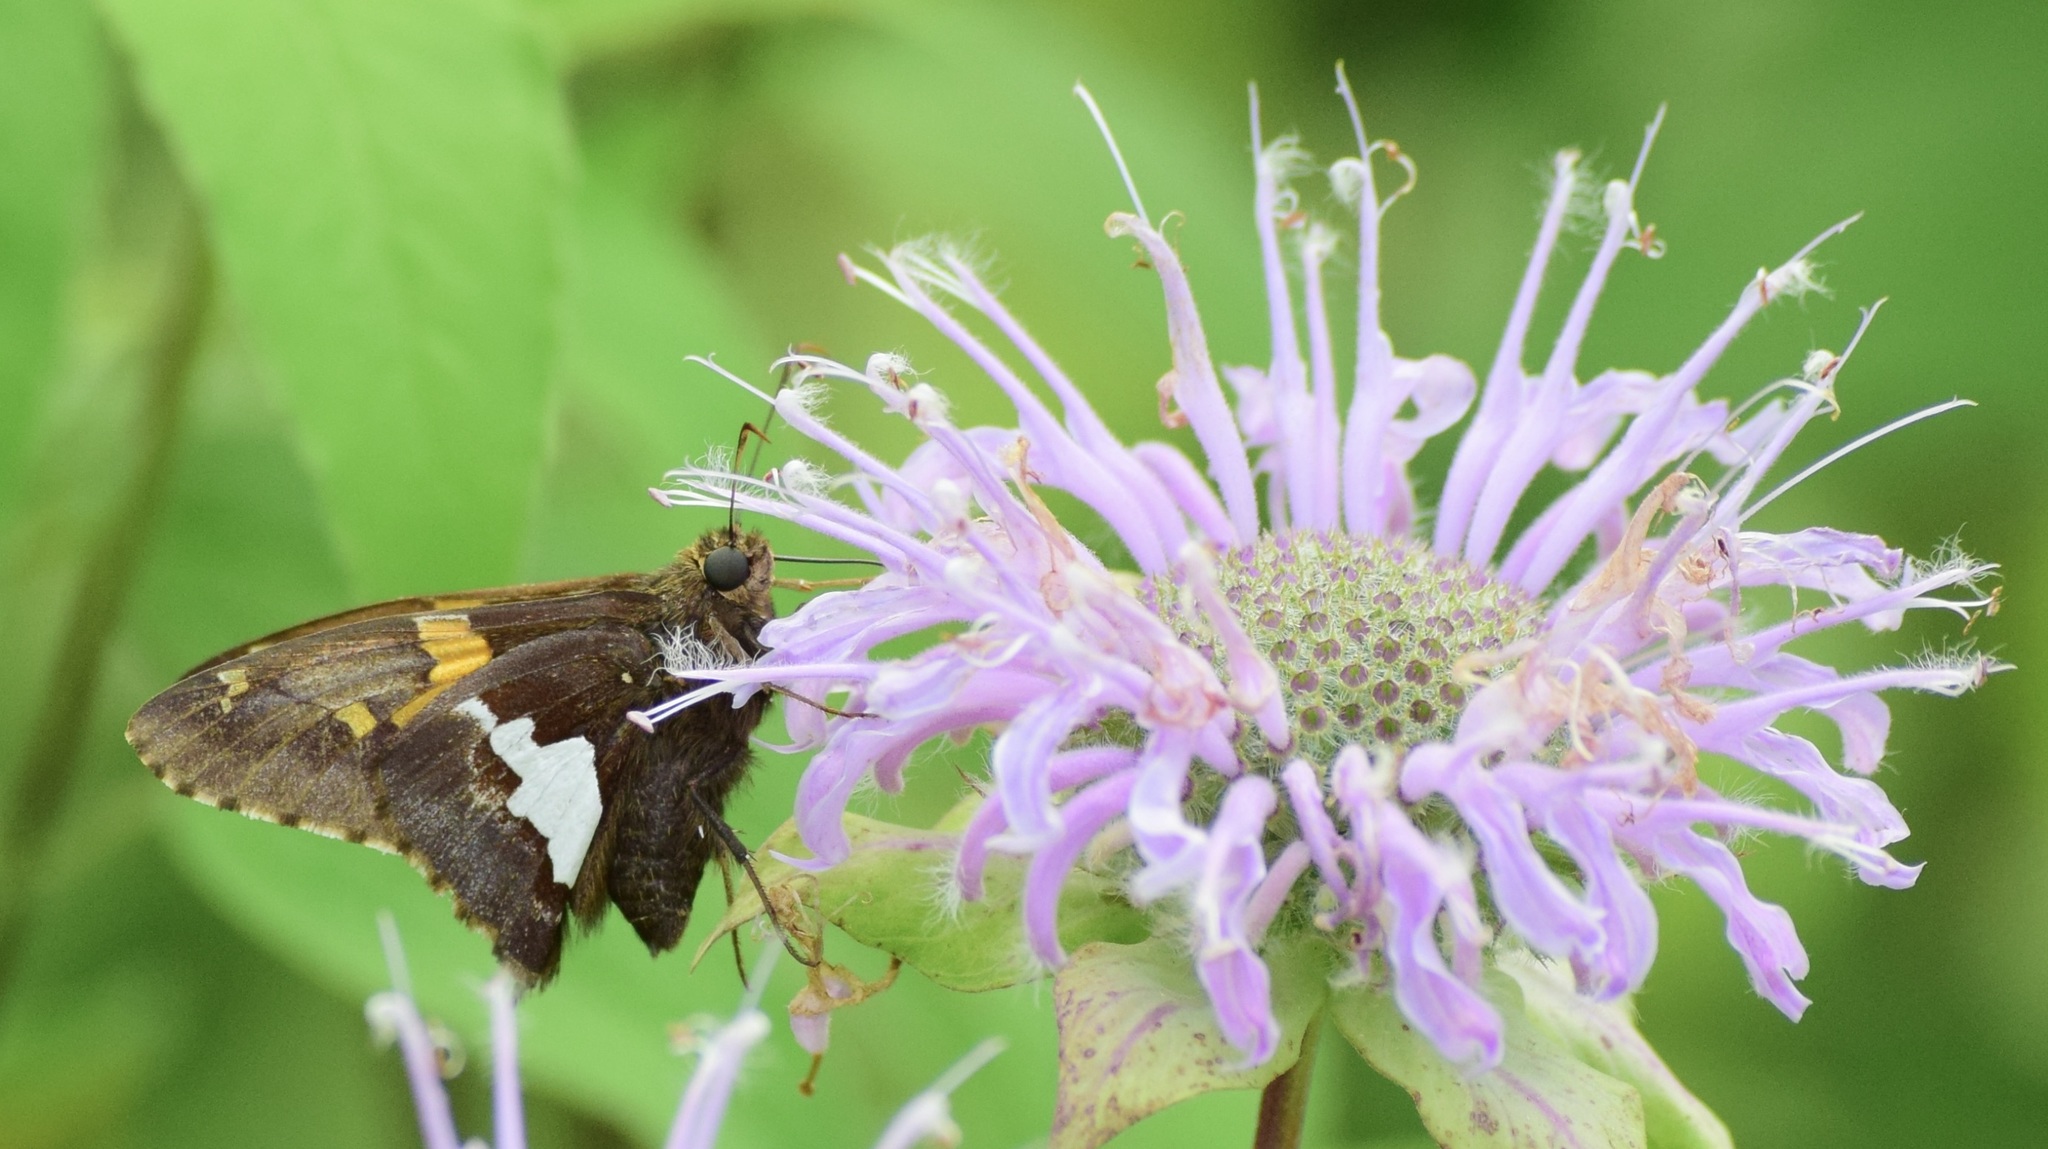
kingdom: Animalia
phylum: Arthropoda
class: Insecta
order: Lepidoptera
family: Hesperiidae
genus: Epargyreus
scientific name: Epargyreus clarus
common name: Silver-spotted skipper
